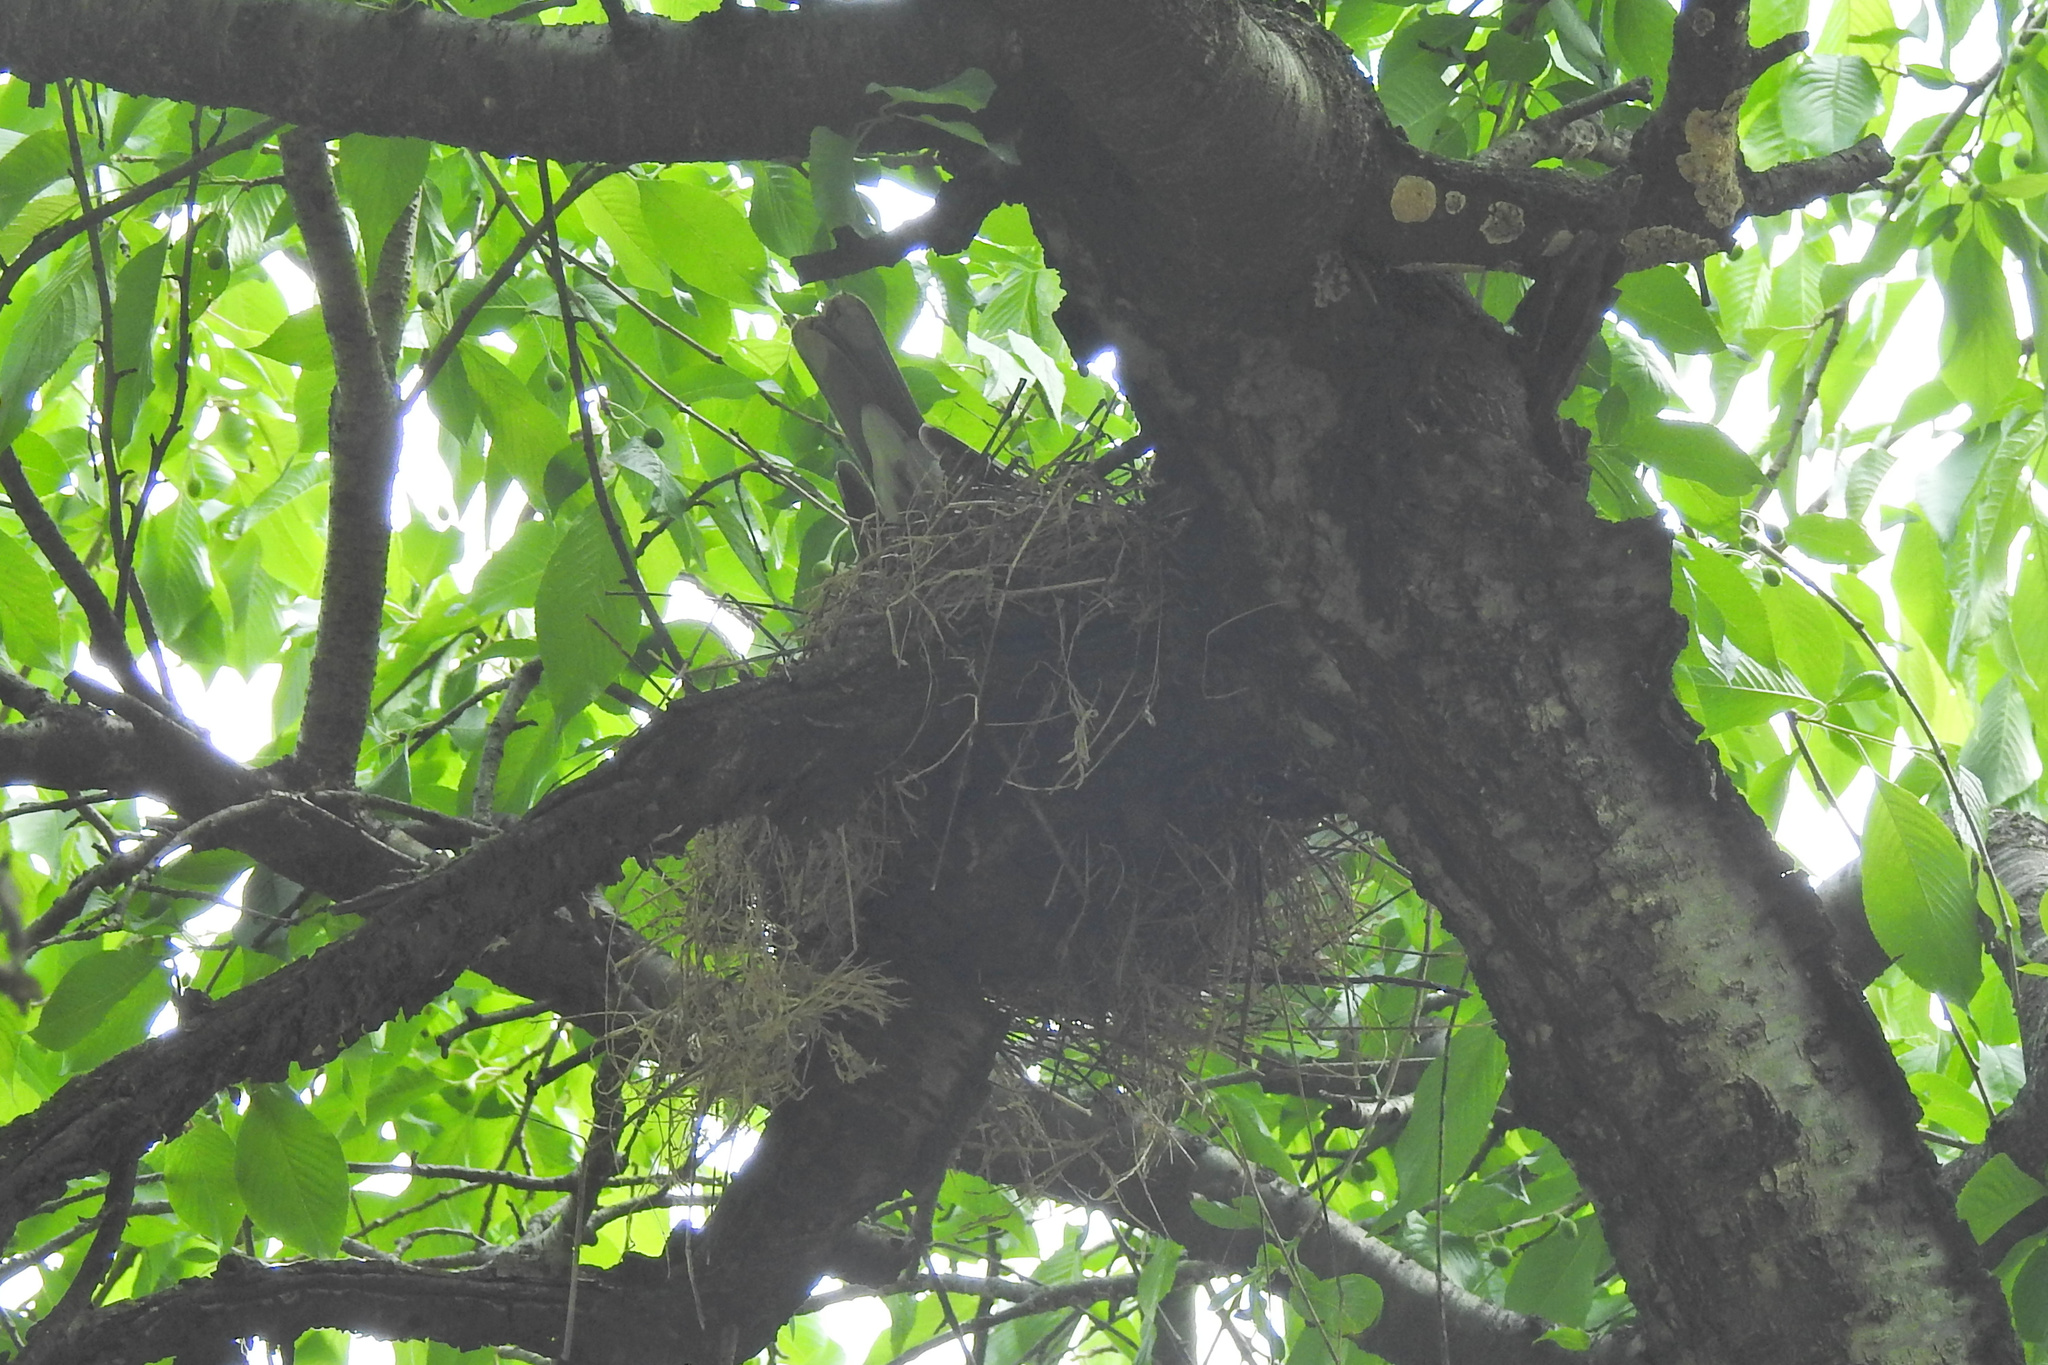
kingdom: Animalia
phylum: Chordata
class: Aves
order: Passeriformes
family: Turdidae
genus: Turdus
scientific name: Turdus migratorius
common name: American robin
